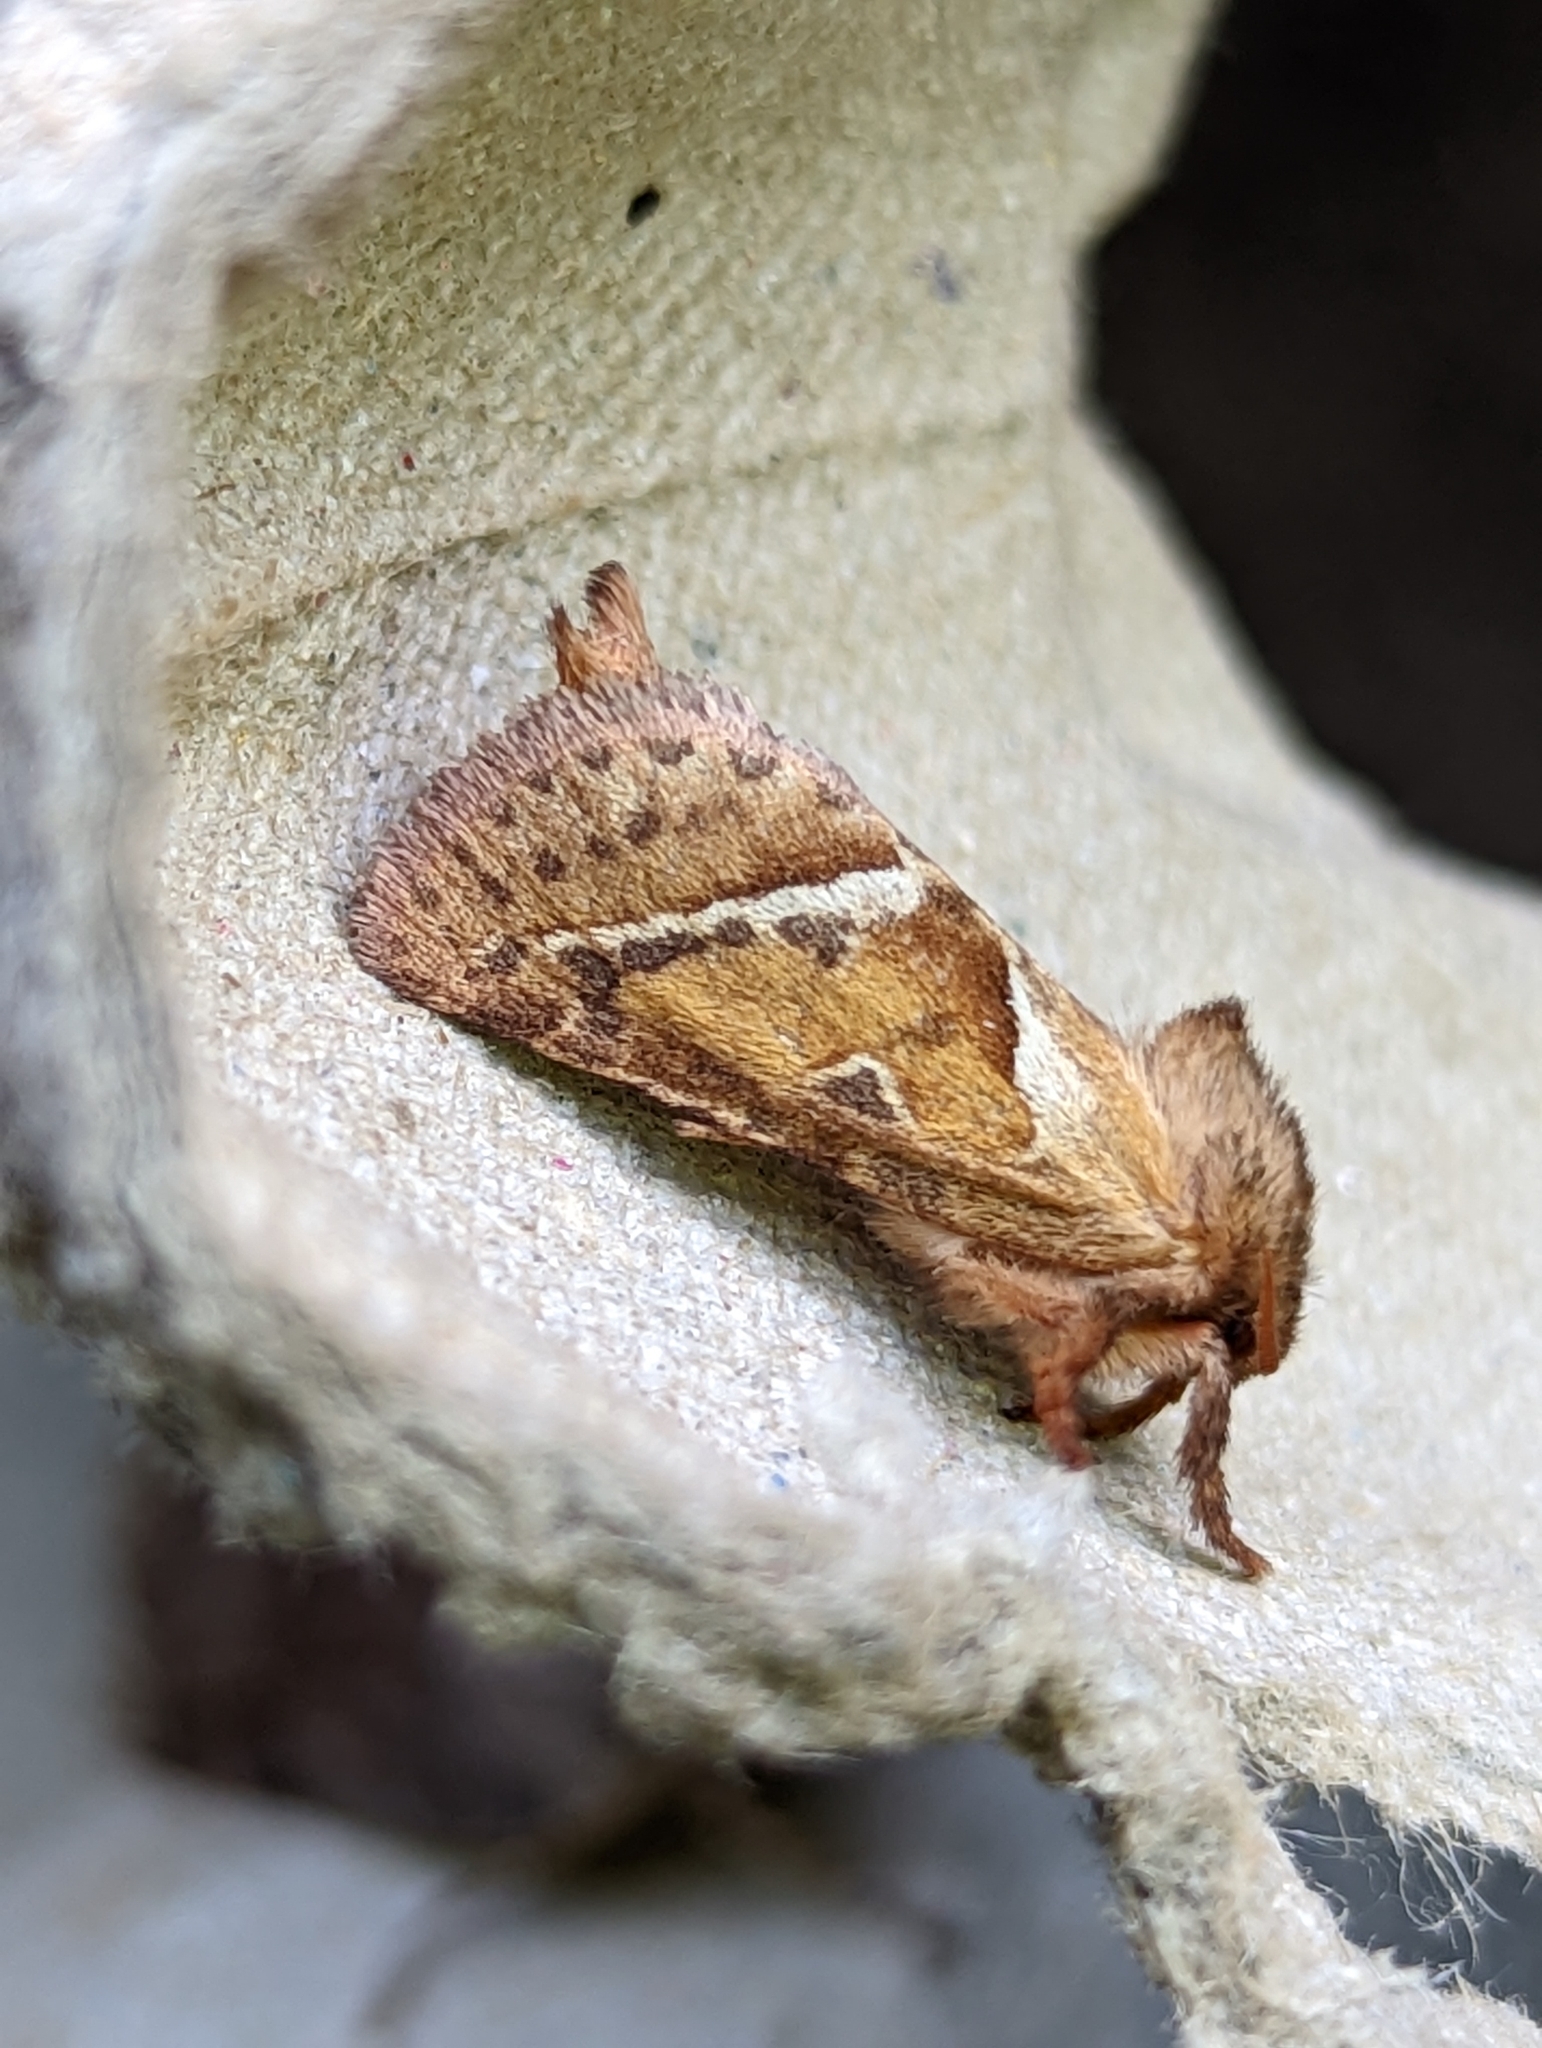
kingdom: Animalia
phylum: Arthropoda
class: Insecta
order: Lepidoptera
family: Hepialidae
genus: Triodia
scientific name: Triodia sylvina
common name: Orange swift
